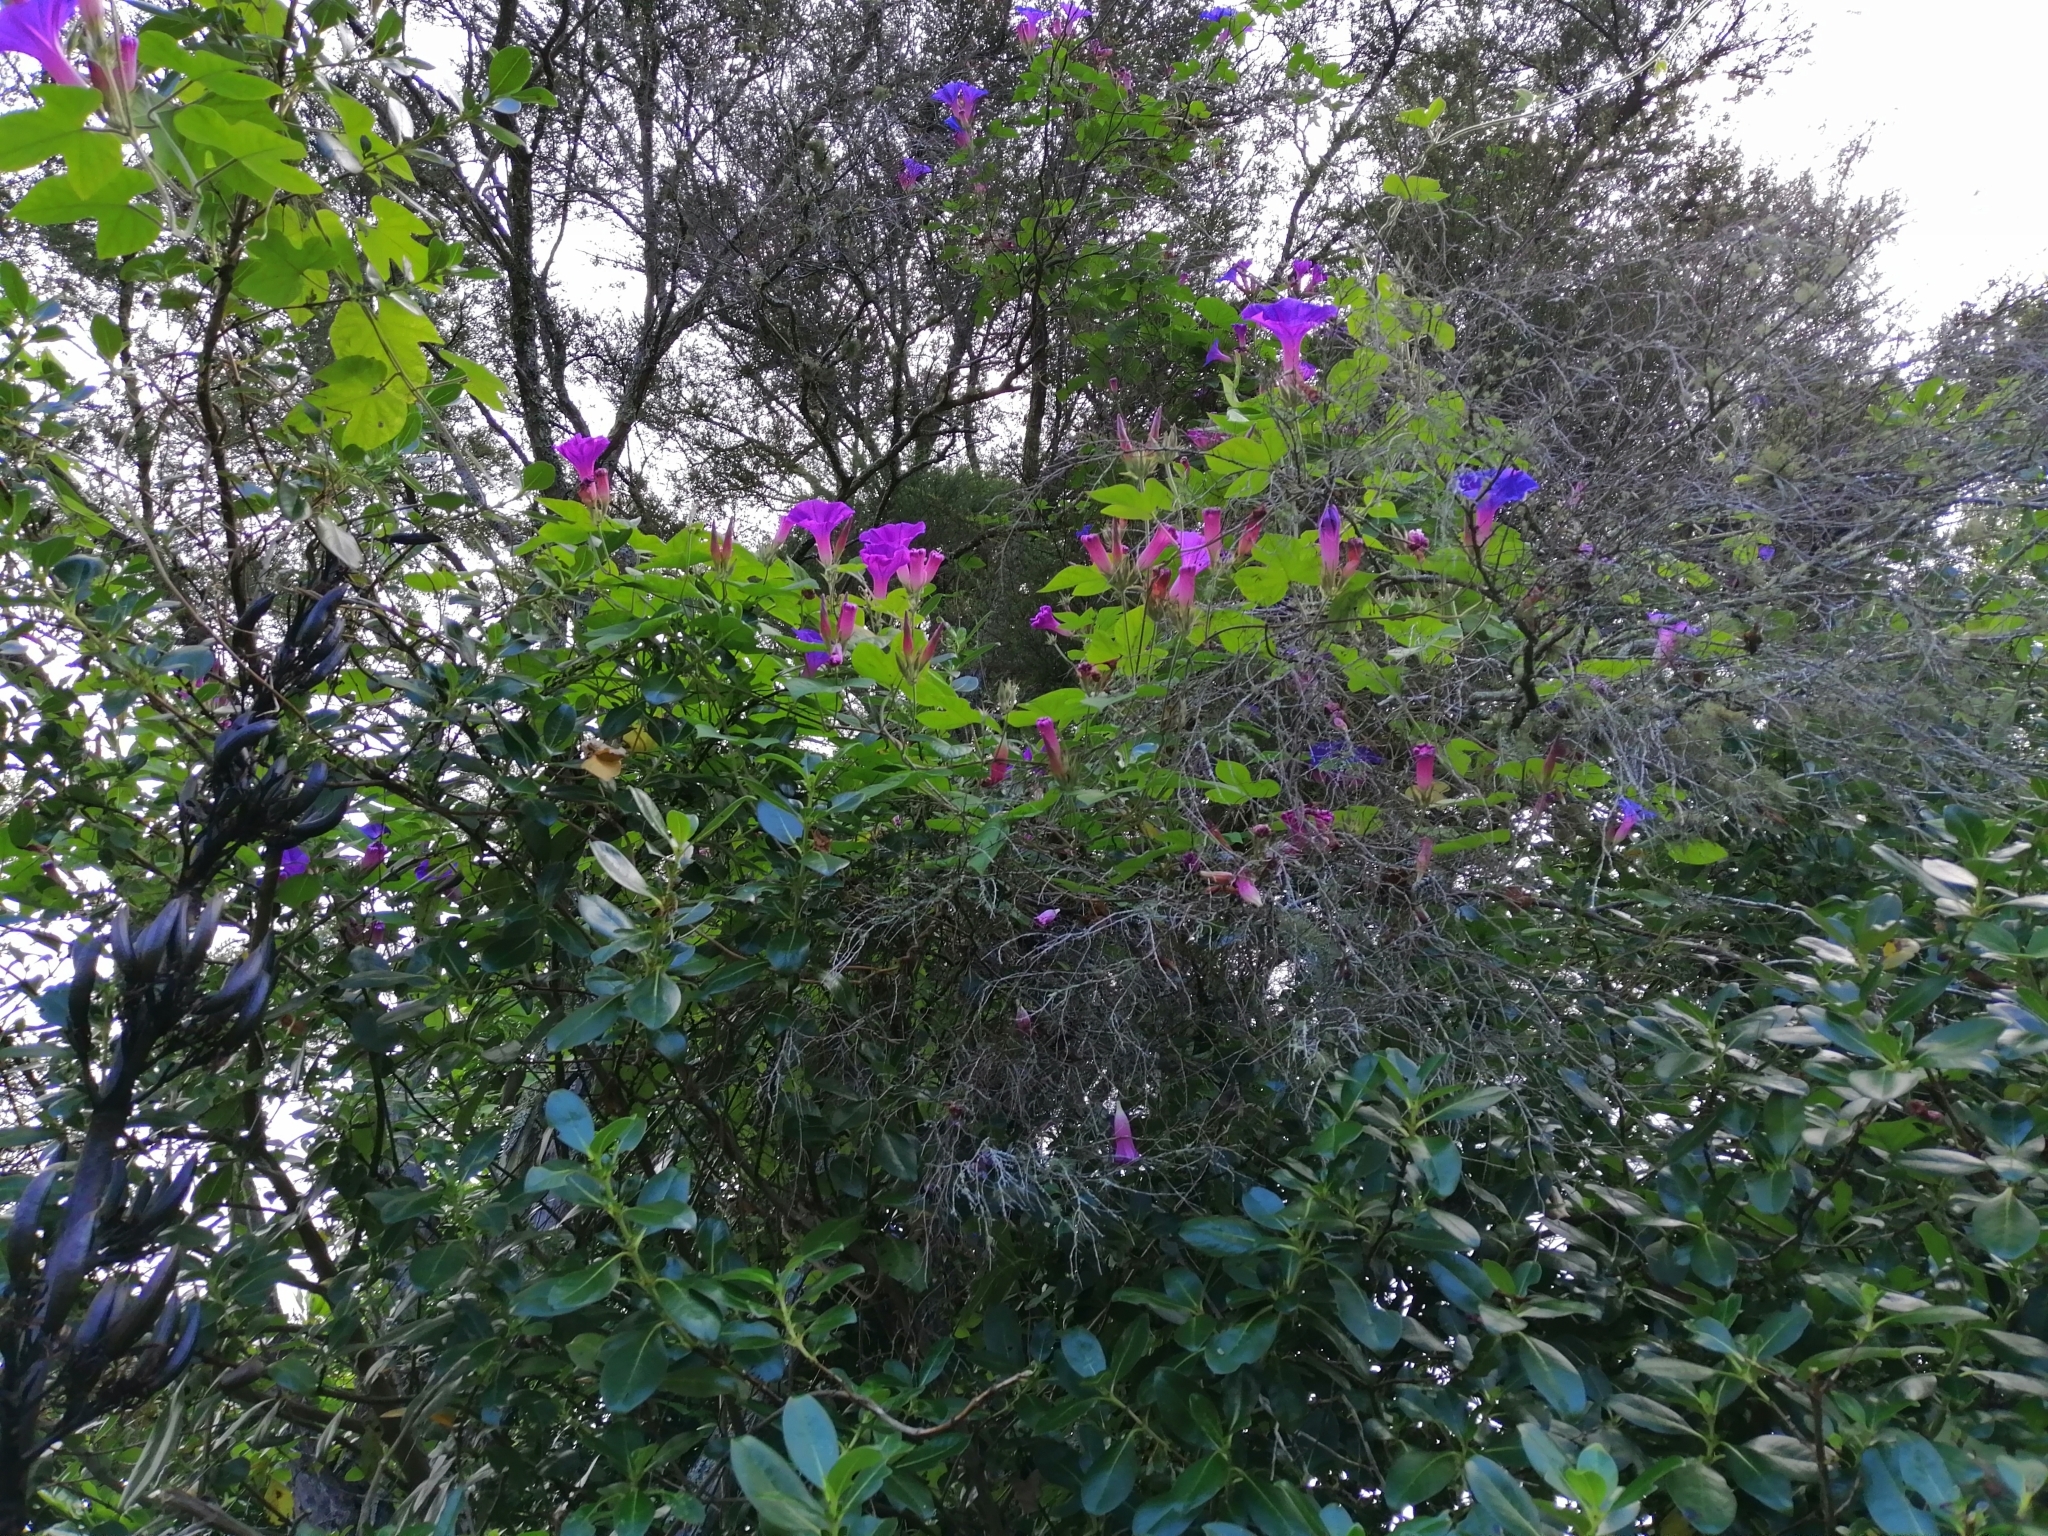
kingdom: Plantae
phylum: Tracheophyta
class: Magnoliopsida
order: Solanales
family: Convolvulaceae
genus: Ipomoea
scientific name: Ipomoea indica
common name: Blue dawnflower
